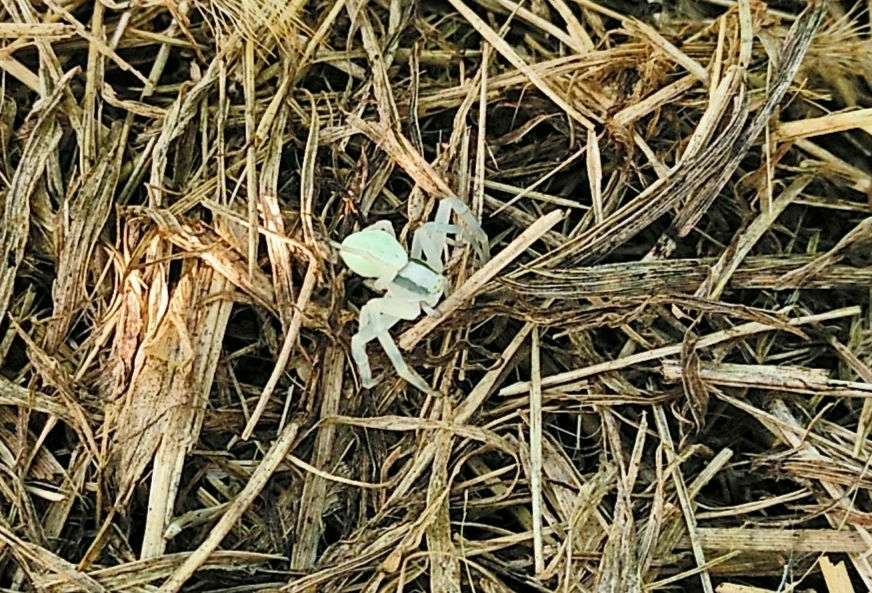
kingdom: Animalia
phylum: Arthropoda
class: Arachnida
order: Araneae
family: Thomisidae
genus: Misumena
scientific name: Misumena vatia
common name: Goldenrod crab spider
